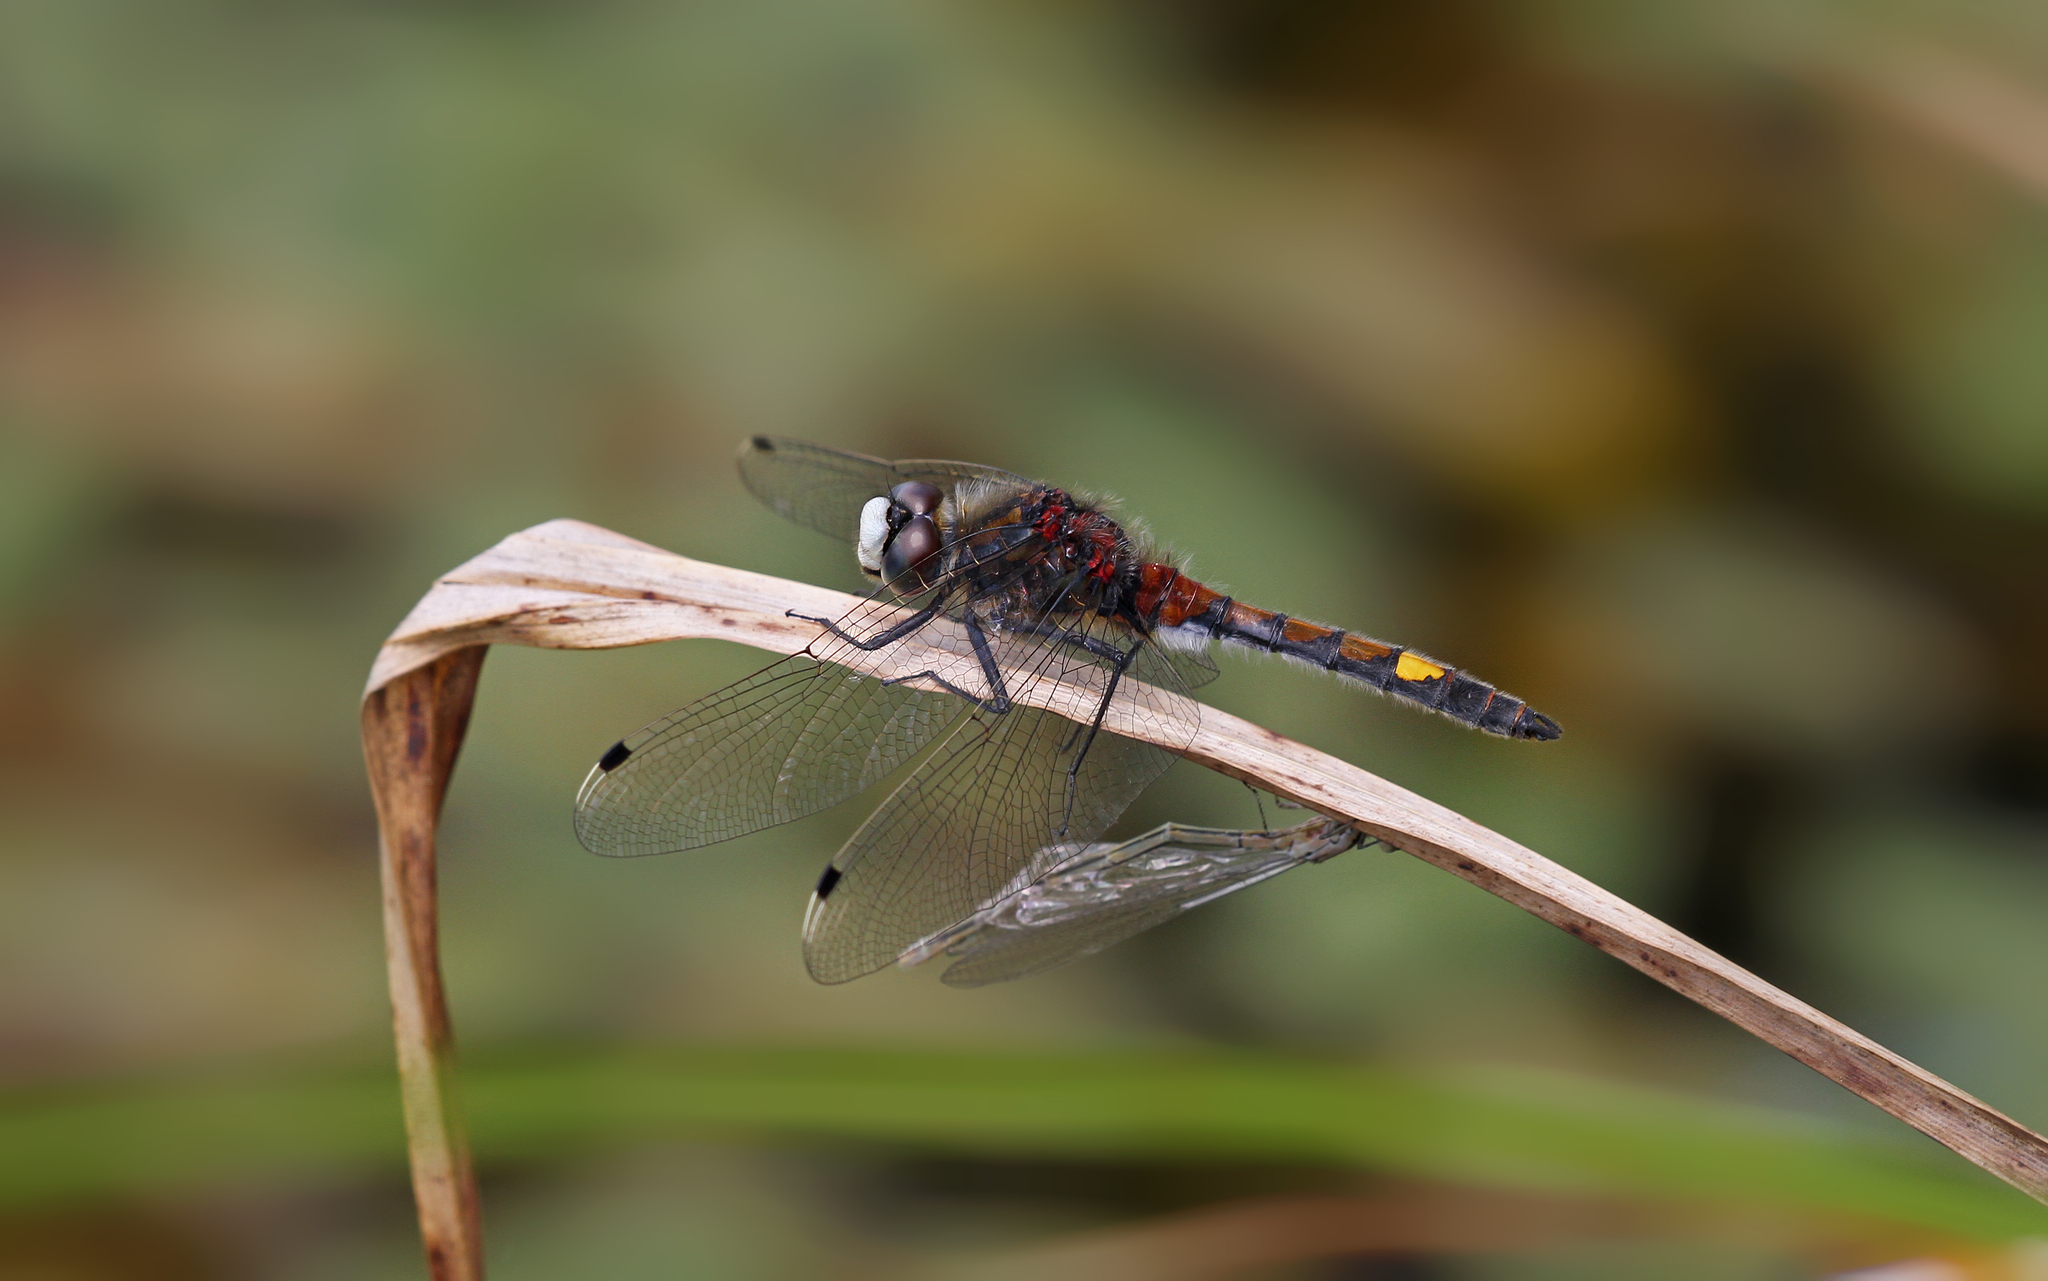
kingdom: Animalia
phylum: Arthropoda
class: Insecta
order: Odonata
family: Libellulidae
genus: Leucorrhinia
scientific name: Leucorrhinia pectoralis
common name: Yellow-spotted whiteface
